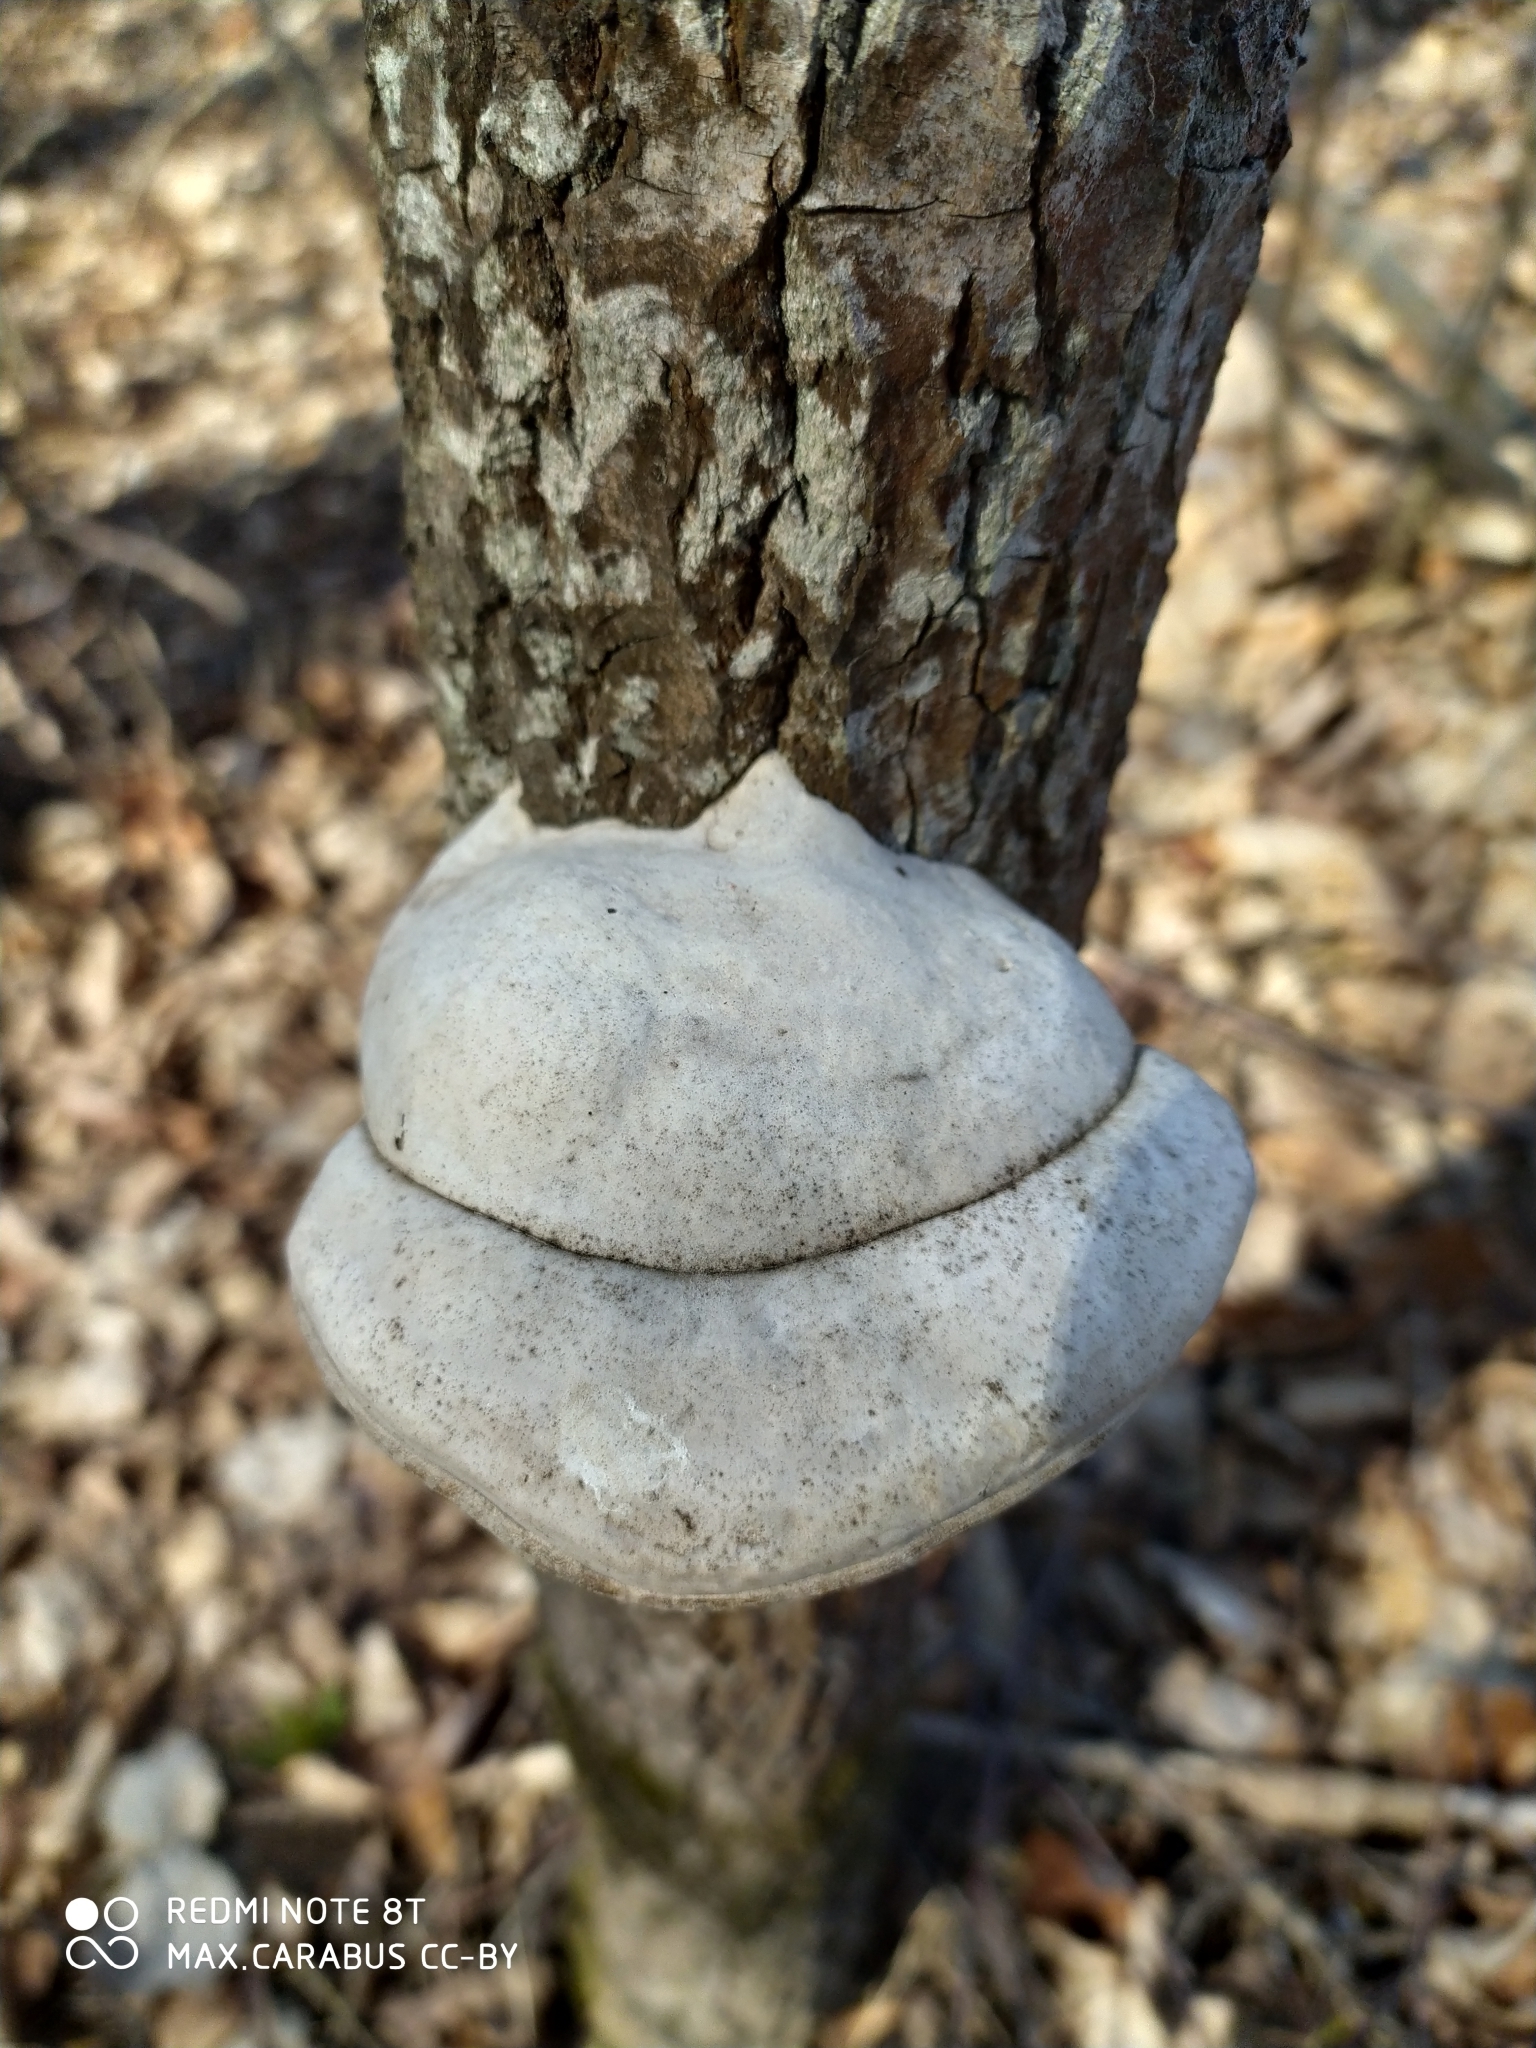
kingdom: Fungi
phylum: Basidiomycota
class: Agaricomycetes
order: Polyporales
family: Polyporaceae
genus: Fomes
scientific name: Fomes fomentarius
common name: Hoof fungus
